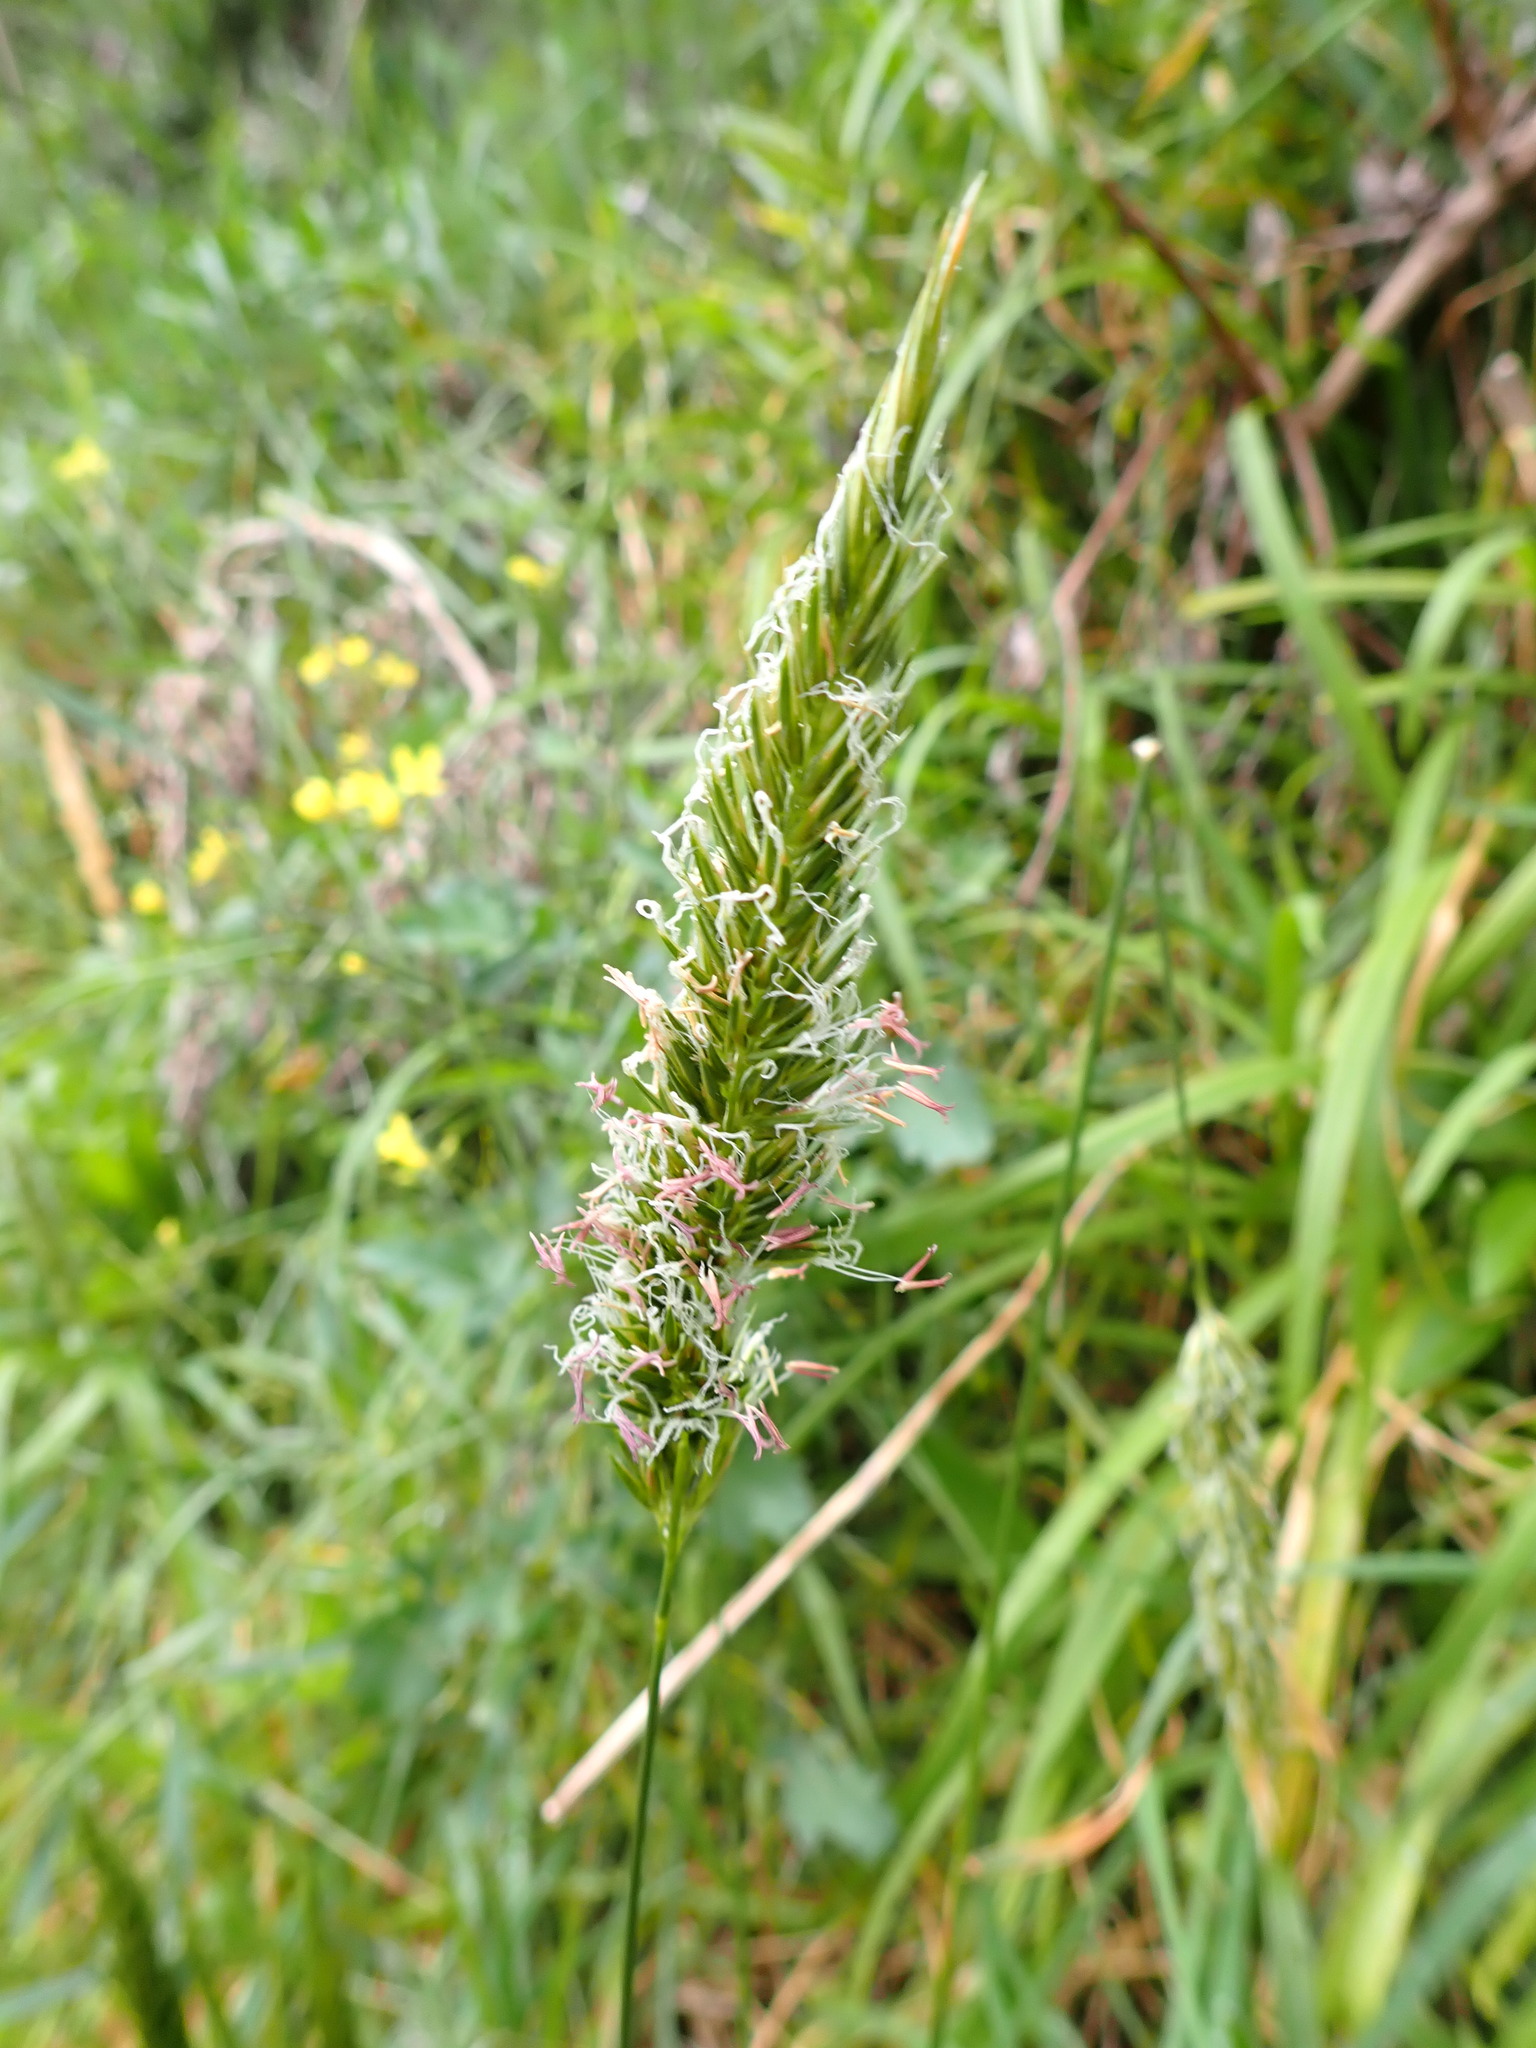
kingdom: Plantae
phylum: Tracheophyta
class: Liliopsida
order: Poales
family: Poaceae
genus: Anthoxanthum
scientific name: Anthoxanthum odoratum
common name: Sweet vernalgrass
